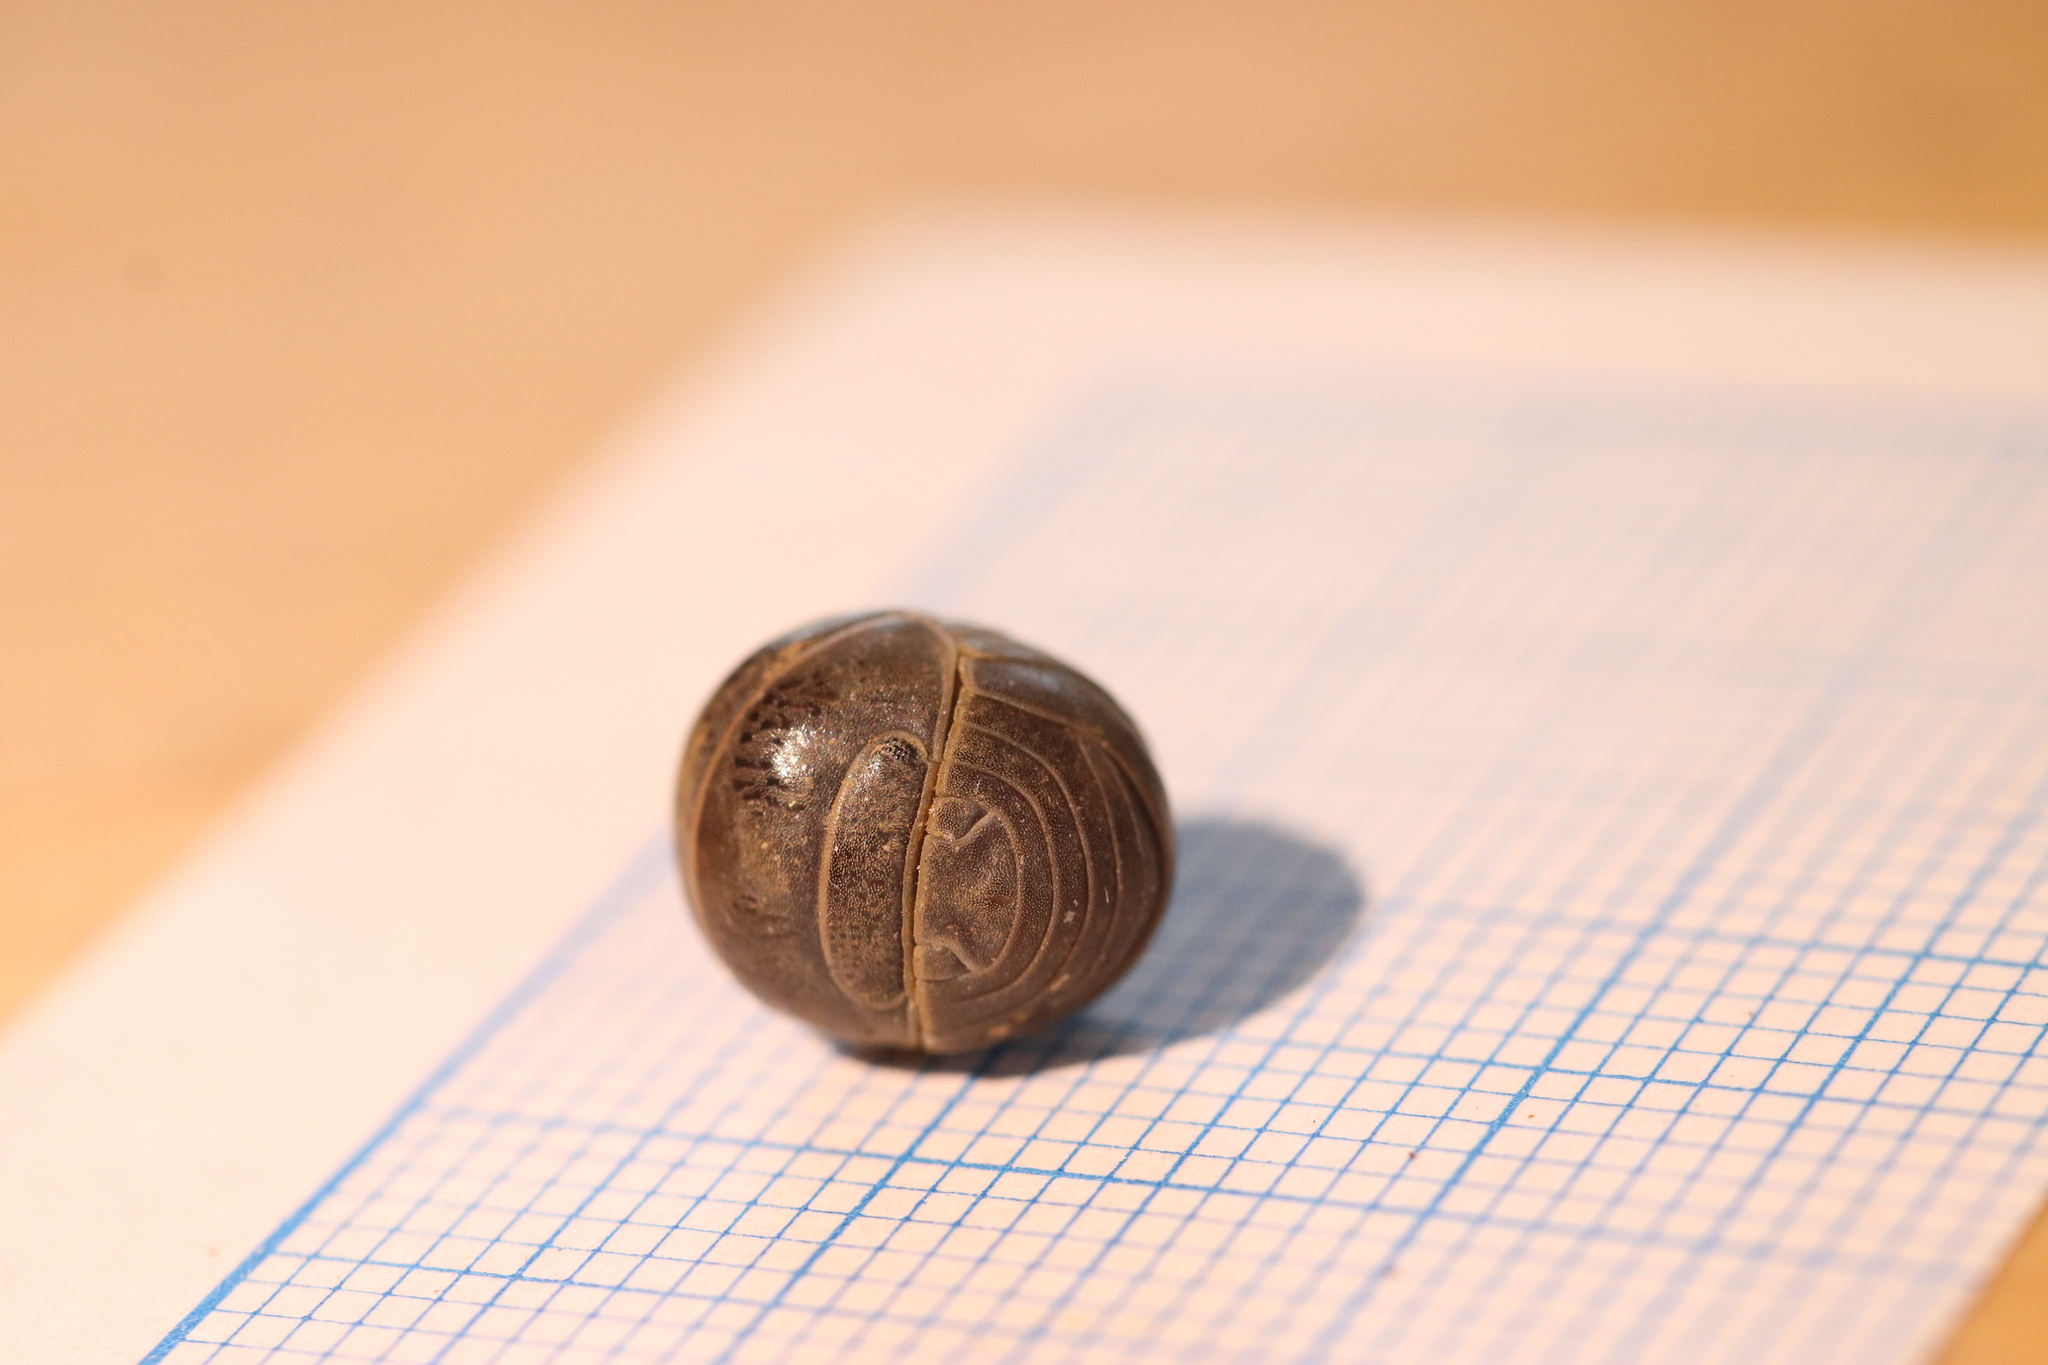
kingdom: Animalia
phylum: Arthropoda
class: Malacostraca
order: Isopoda
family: Armadillidae
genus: Armadillo
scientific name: Armadillo officinalis
